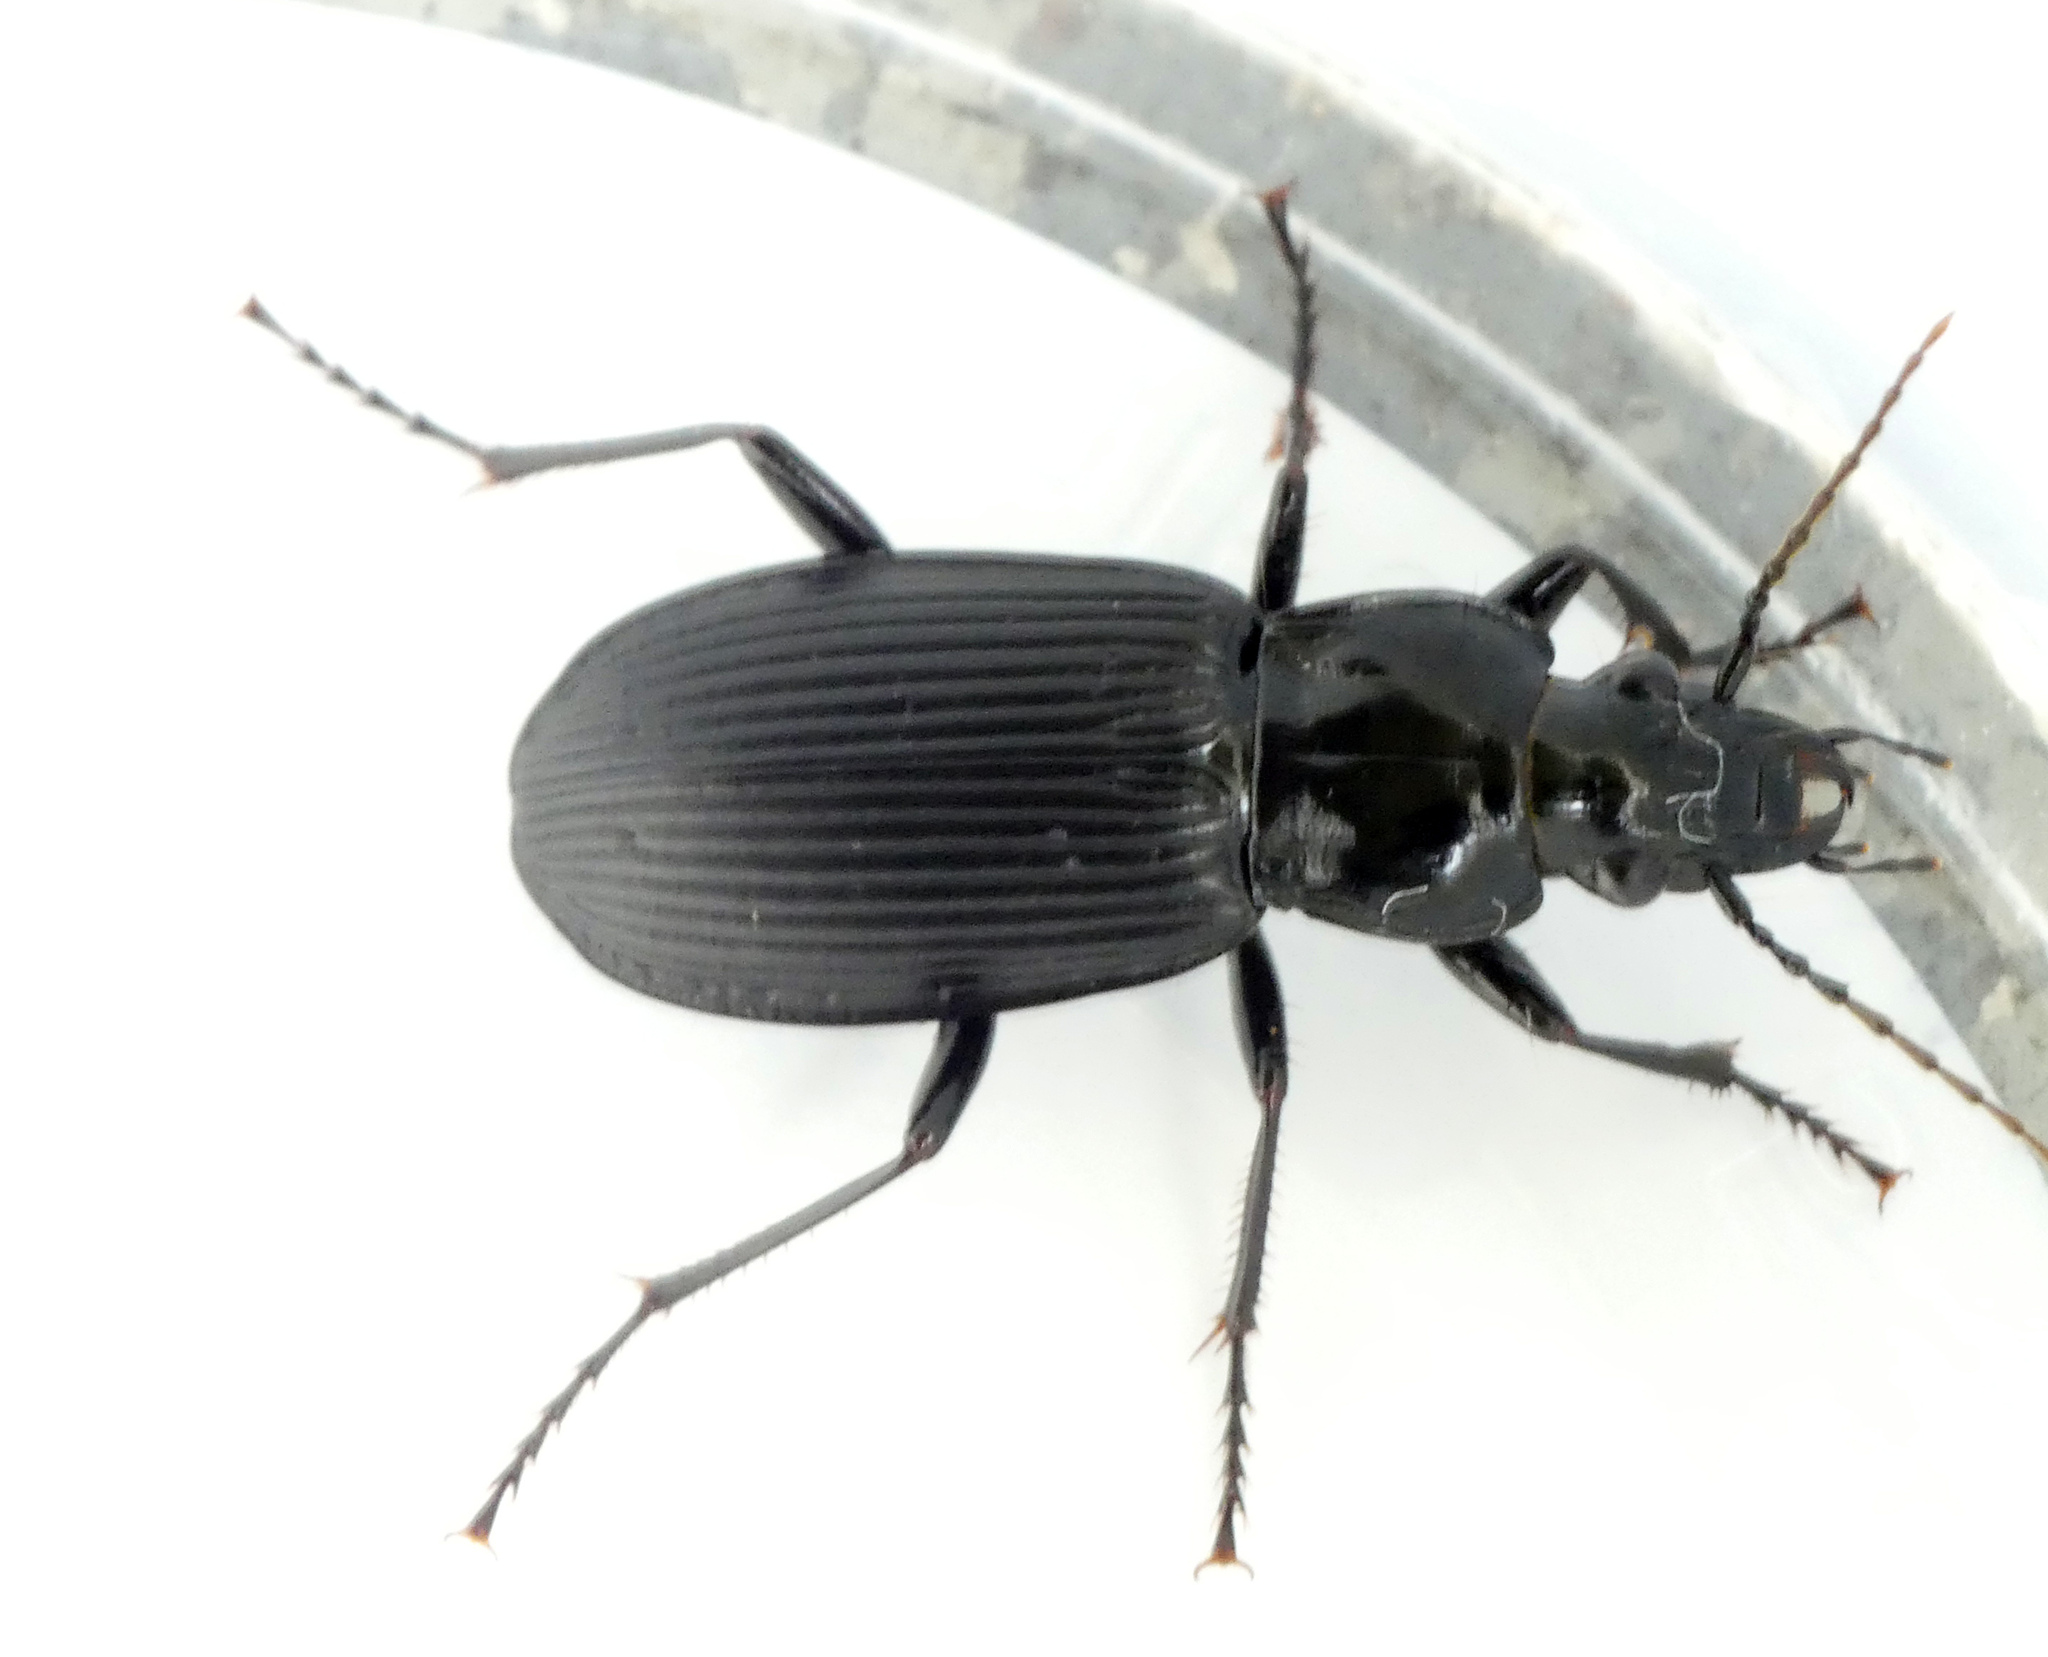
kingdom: Animalia
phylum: Arthropoda
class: Insecta
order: Coleoptera
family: Carabidae
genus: Pterostichus
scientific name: Pterostichus niger
